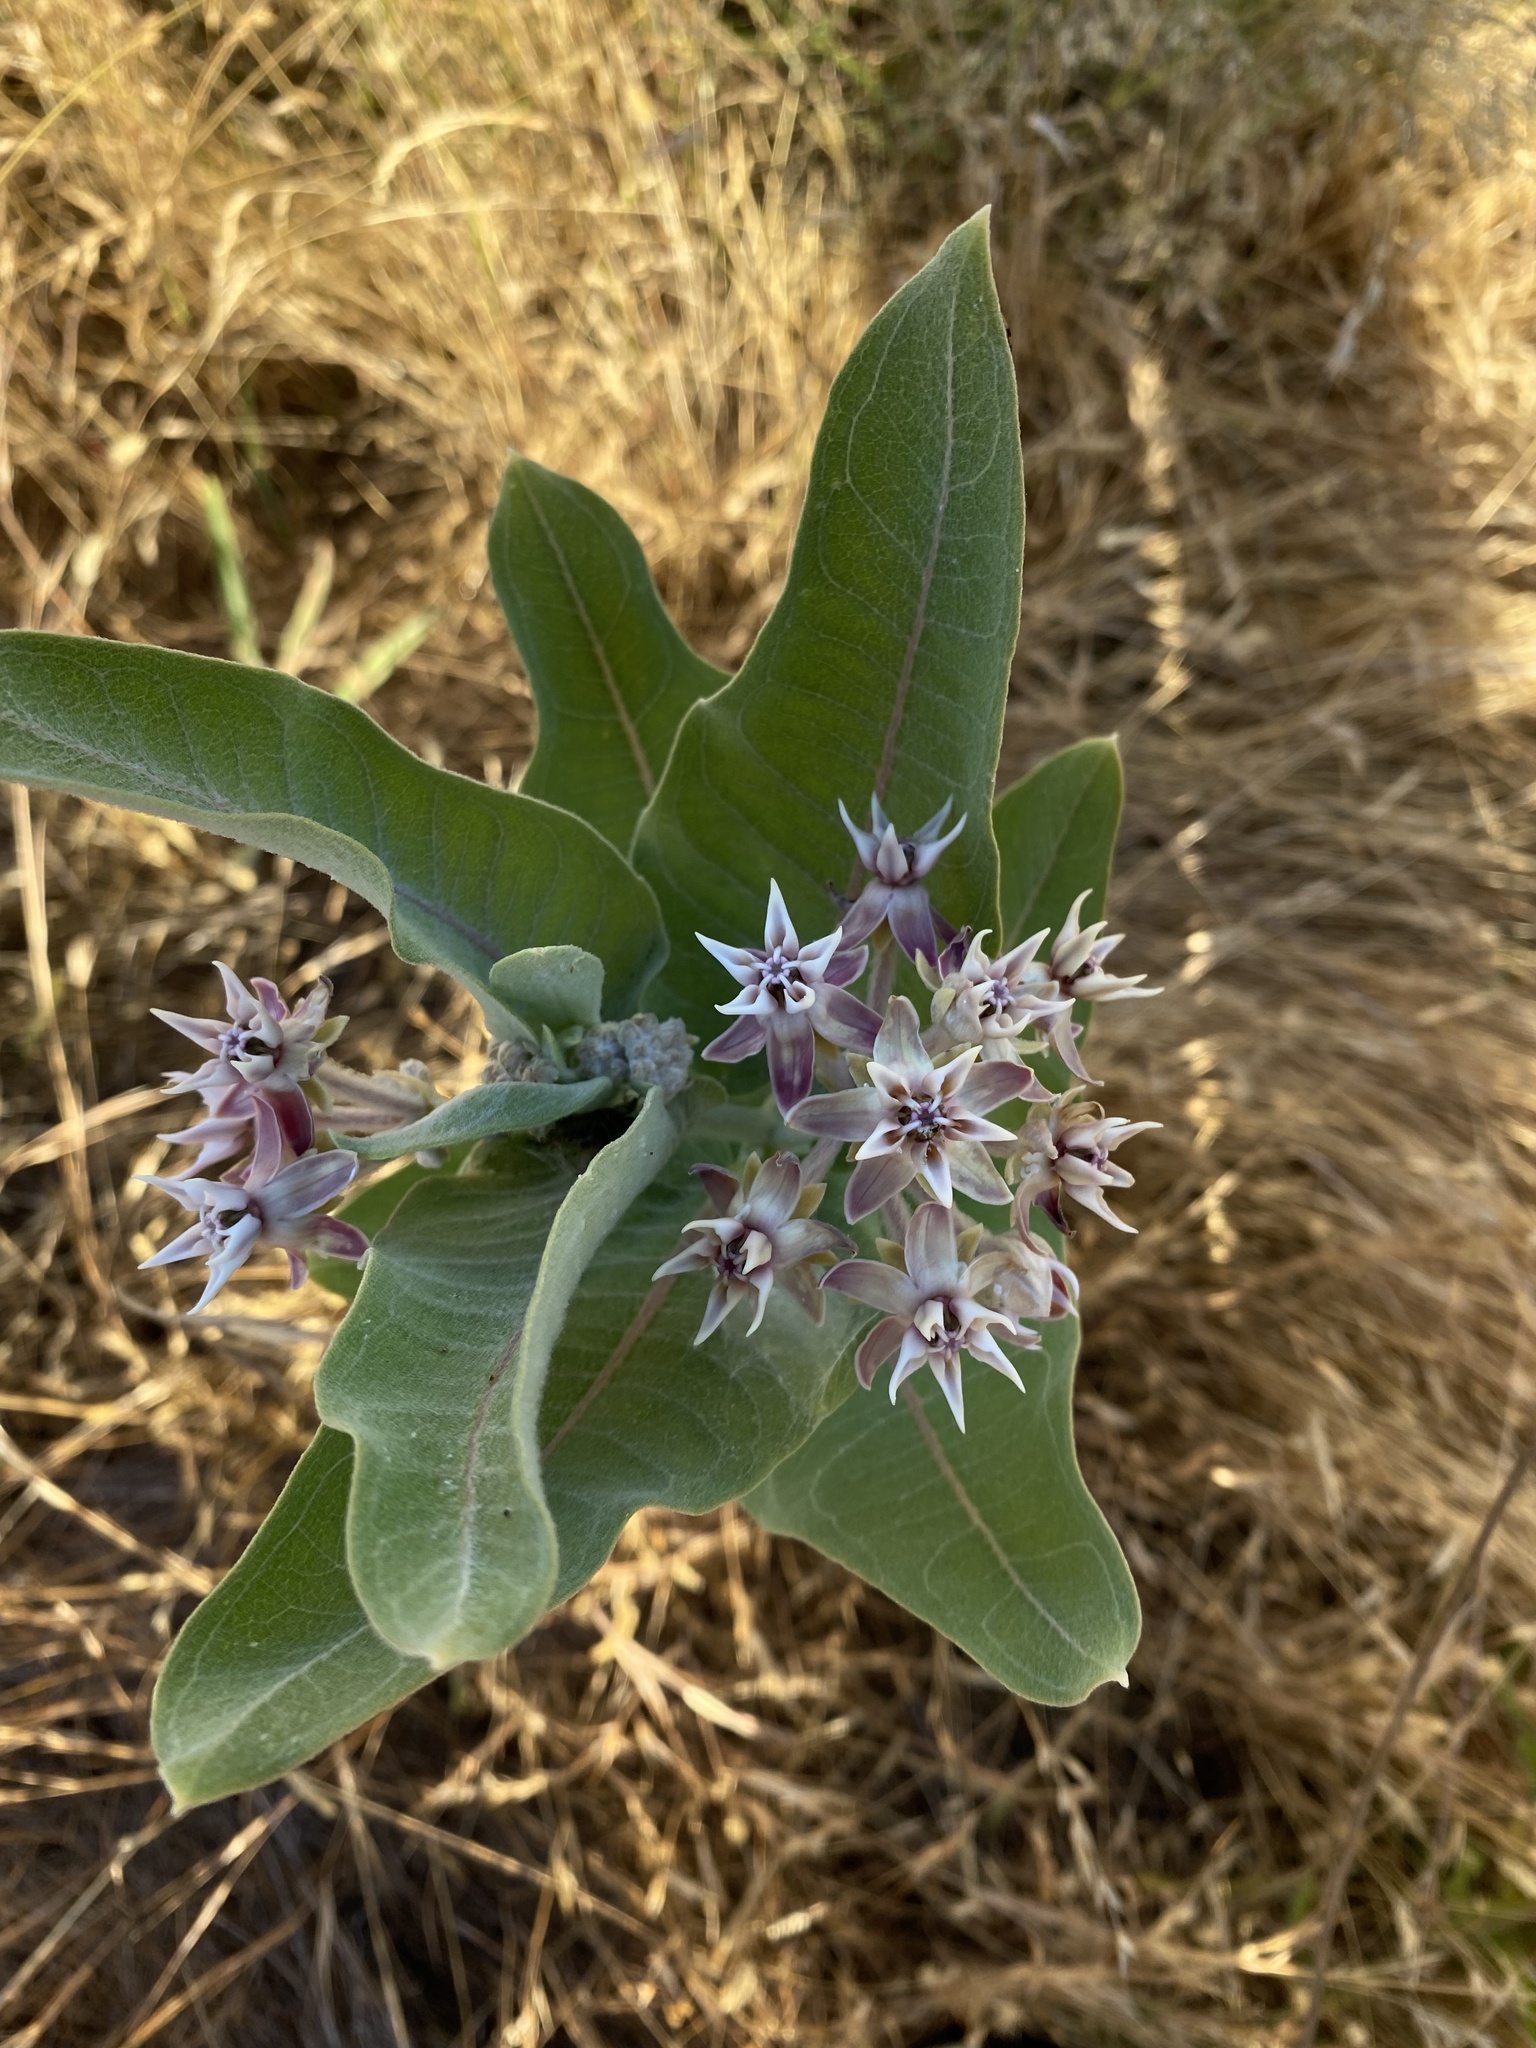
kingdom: Plantae
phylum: Tracheophyta
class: Magnoliopsida
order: Gentianales
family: Apocynaceae
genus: Asclepias
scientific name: Asclepias speciosa
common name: Showy milkweed
